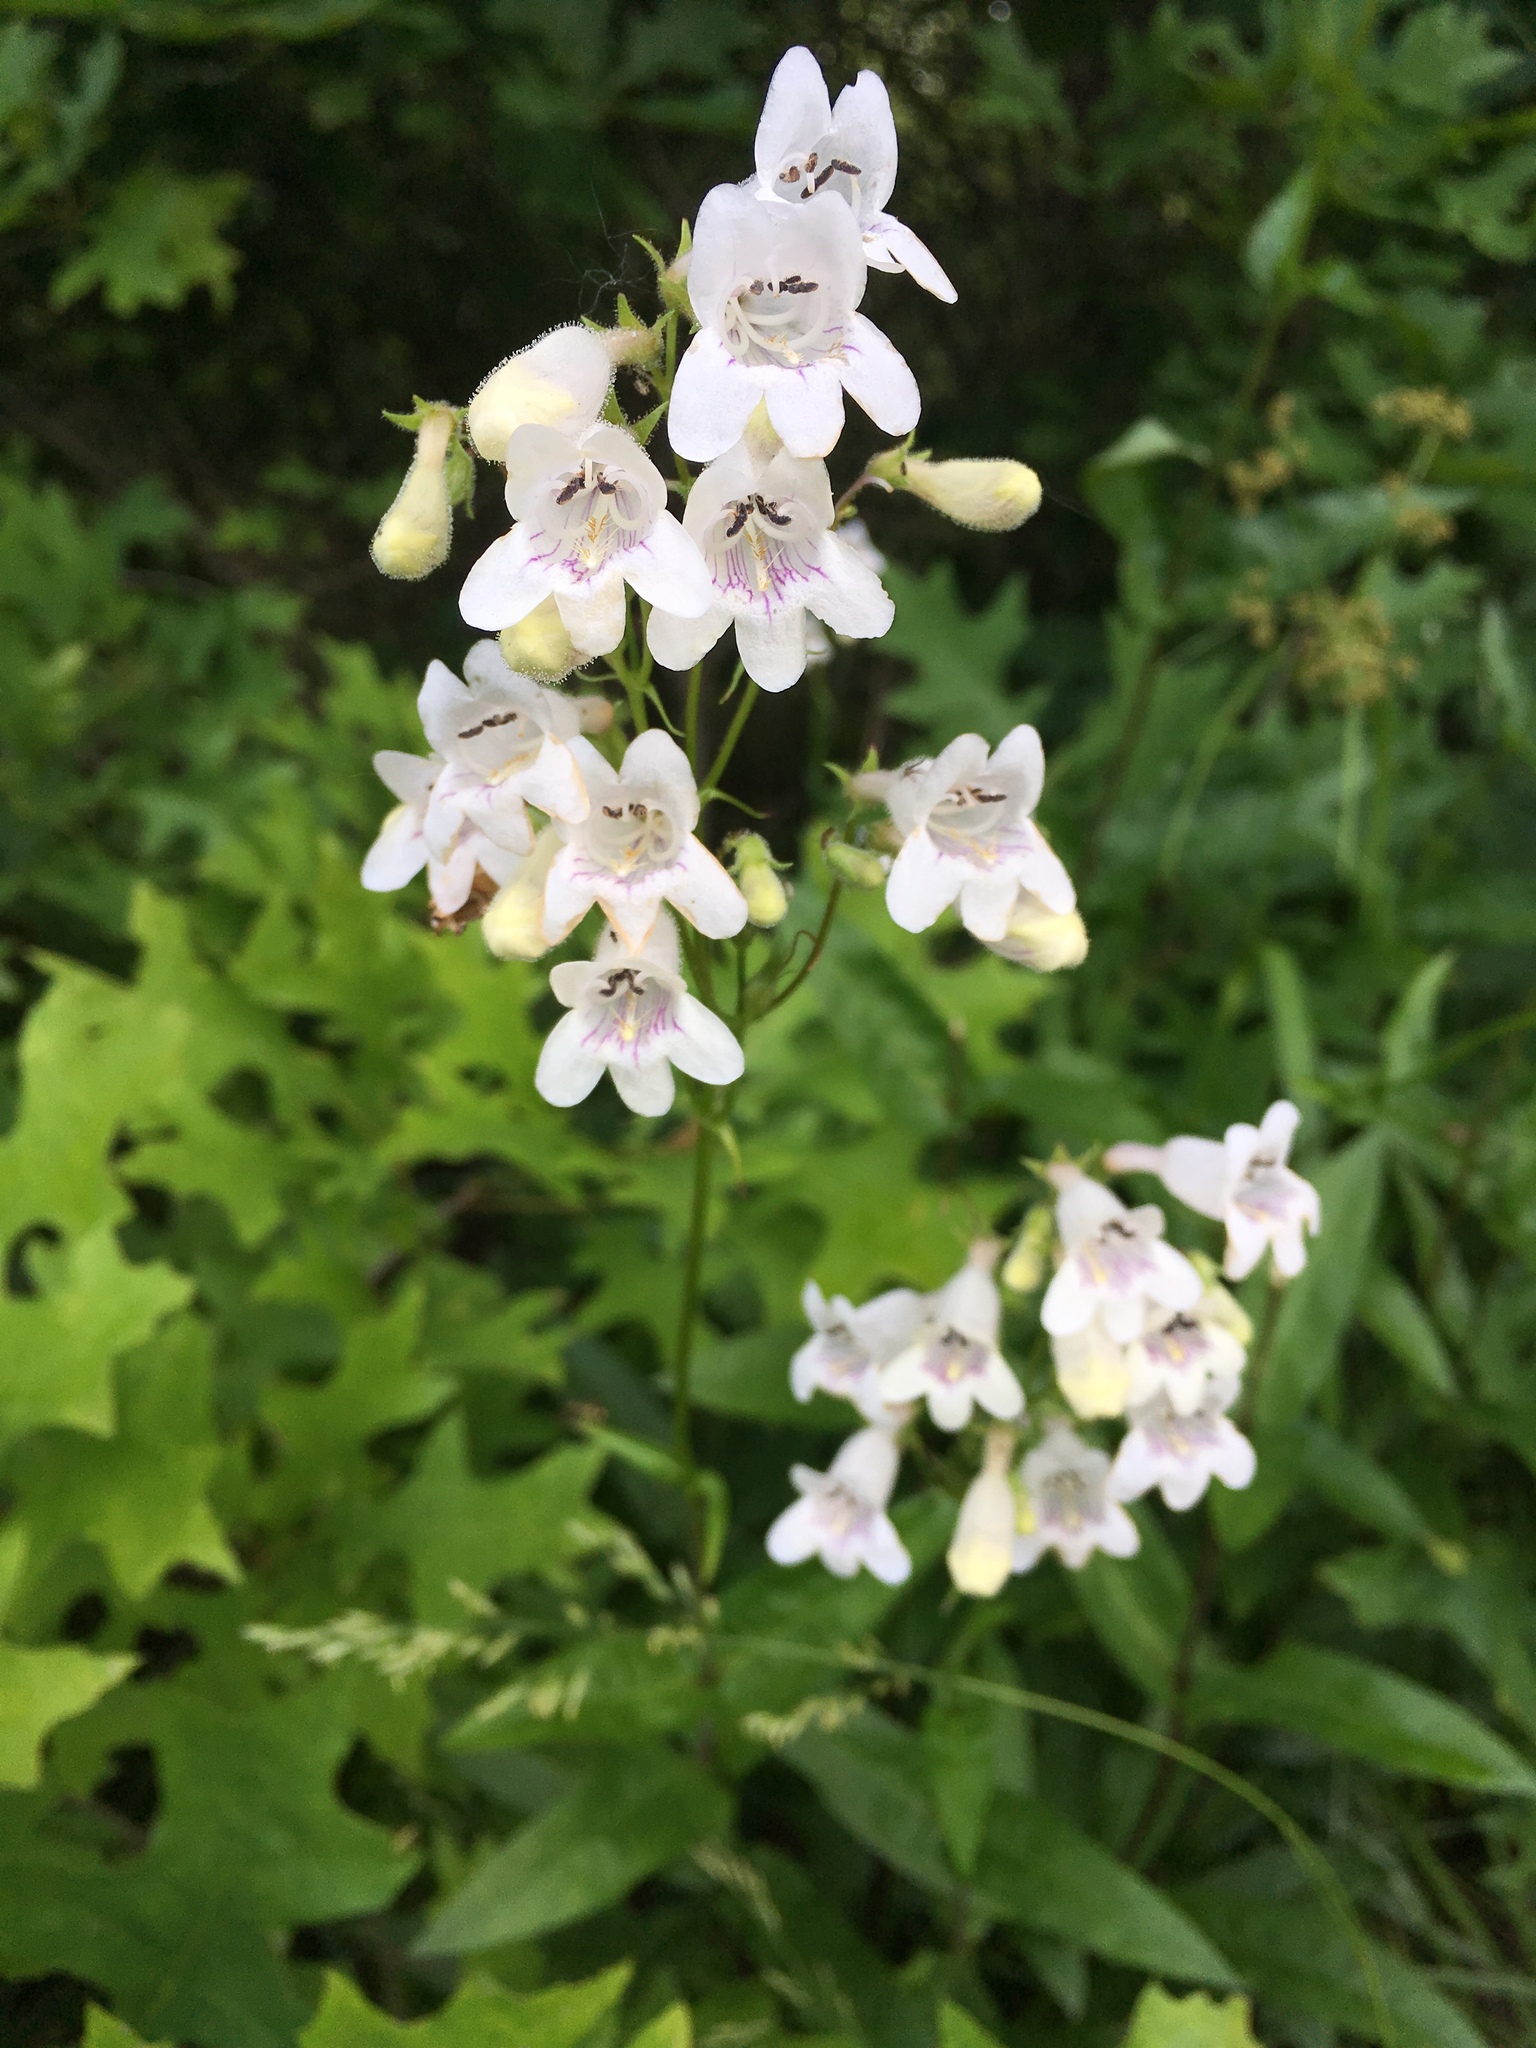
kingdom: Plantae
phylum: Tracheophyta
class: Magnoliopsida
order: Lamiales
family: Plantaginaceae
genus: Penstemon
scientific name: Penstemon digitalis
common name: Foxglove beardtongue
